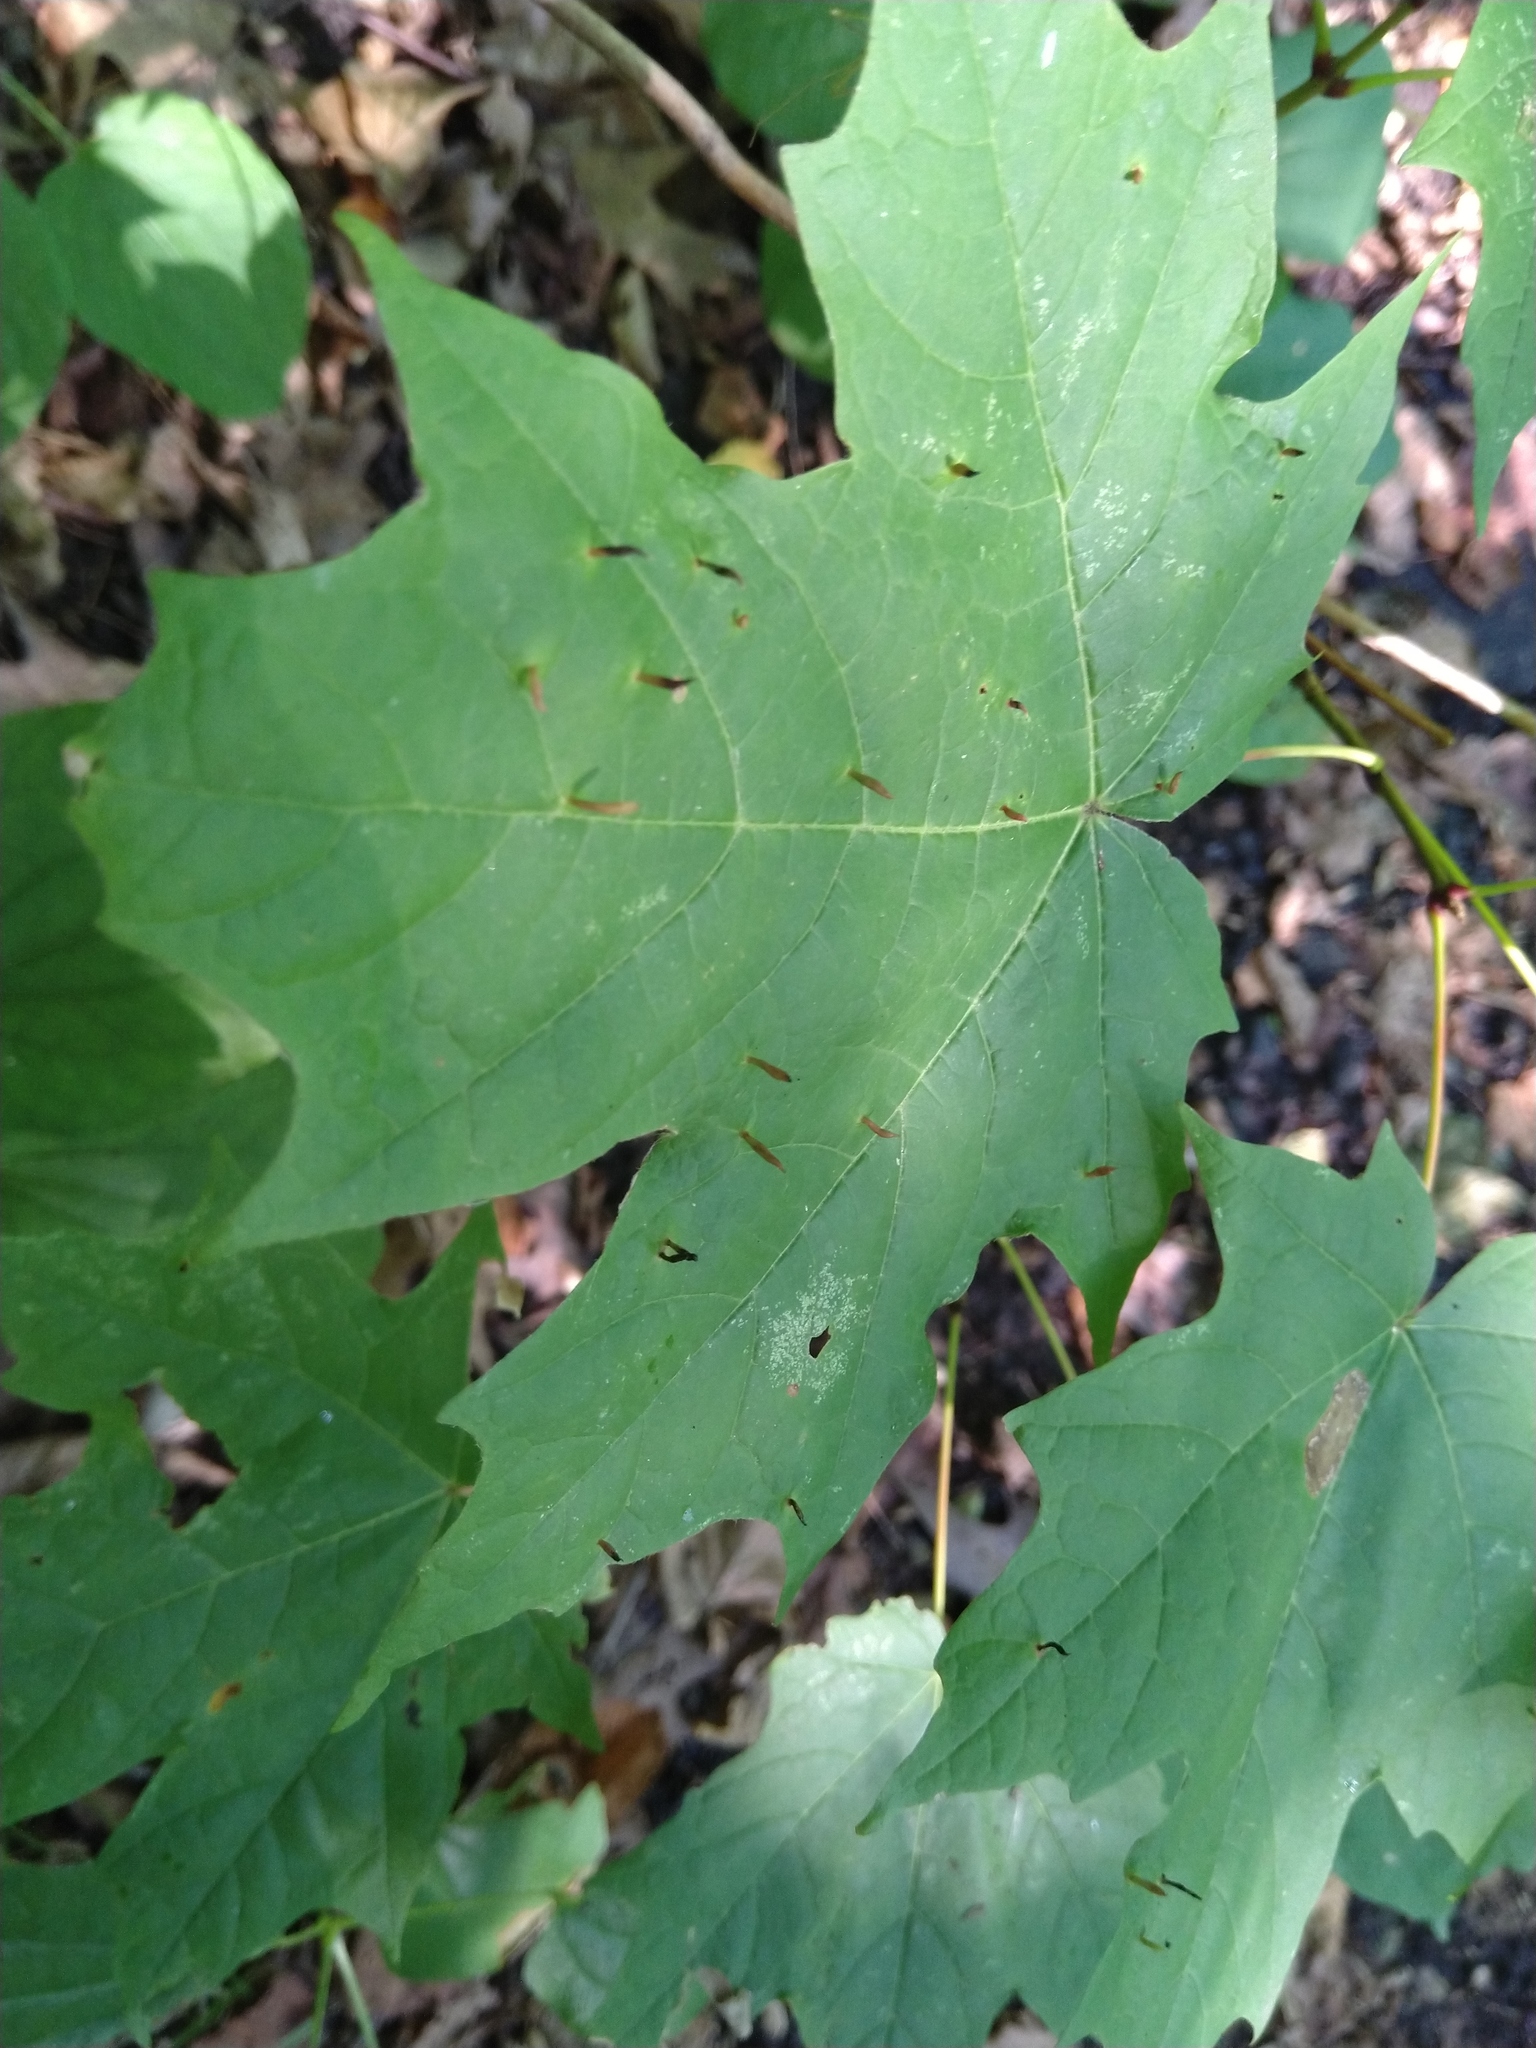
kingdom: Animalia
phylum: Arthropoda
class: Arachnida
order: Trombidiformes
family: Eriophyidae
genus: Vasates
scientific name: Vasates aceriscrumena
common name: Maple spindle gall mite
